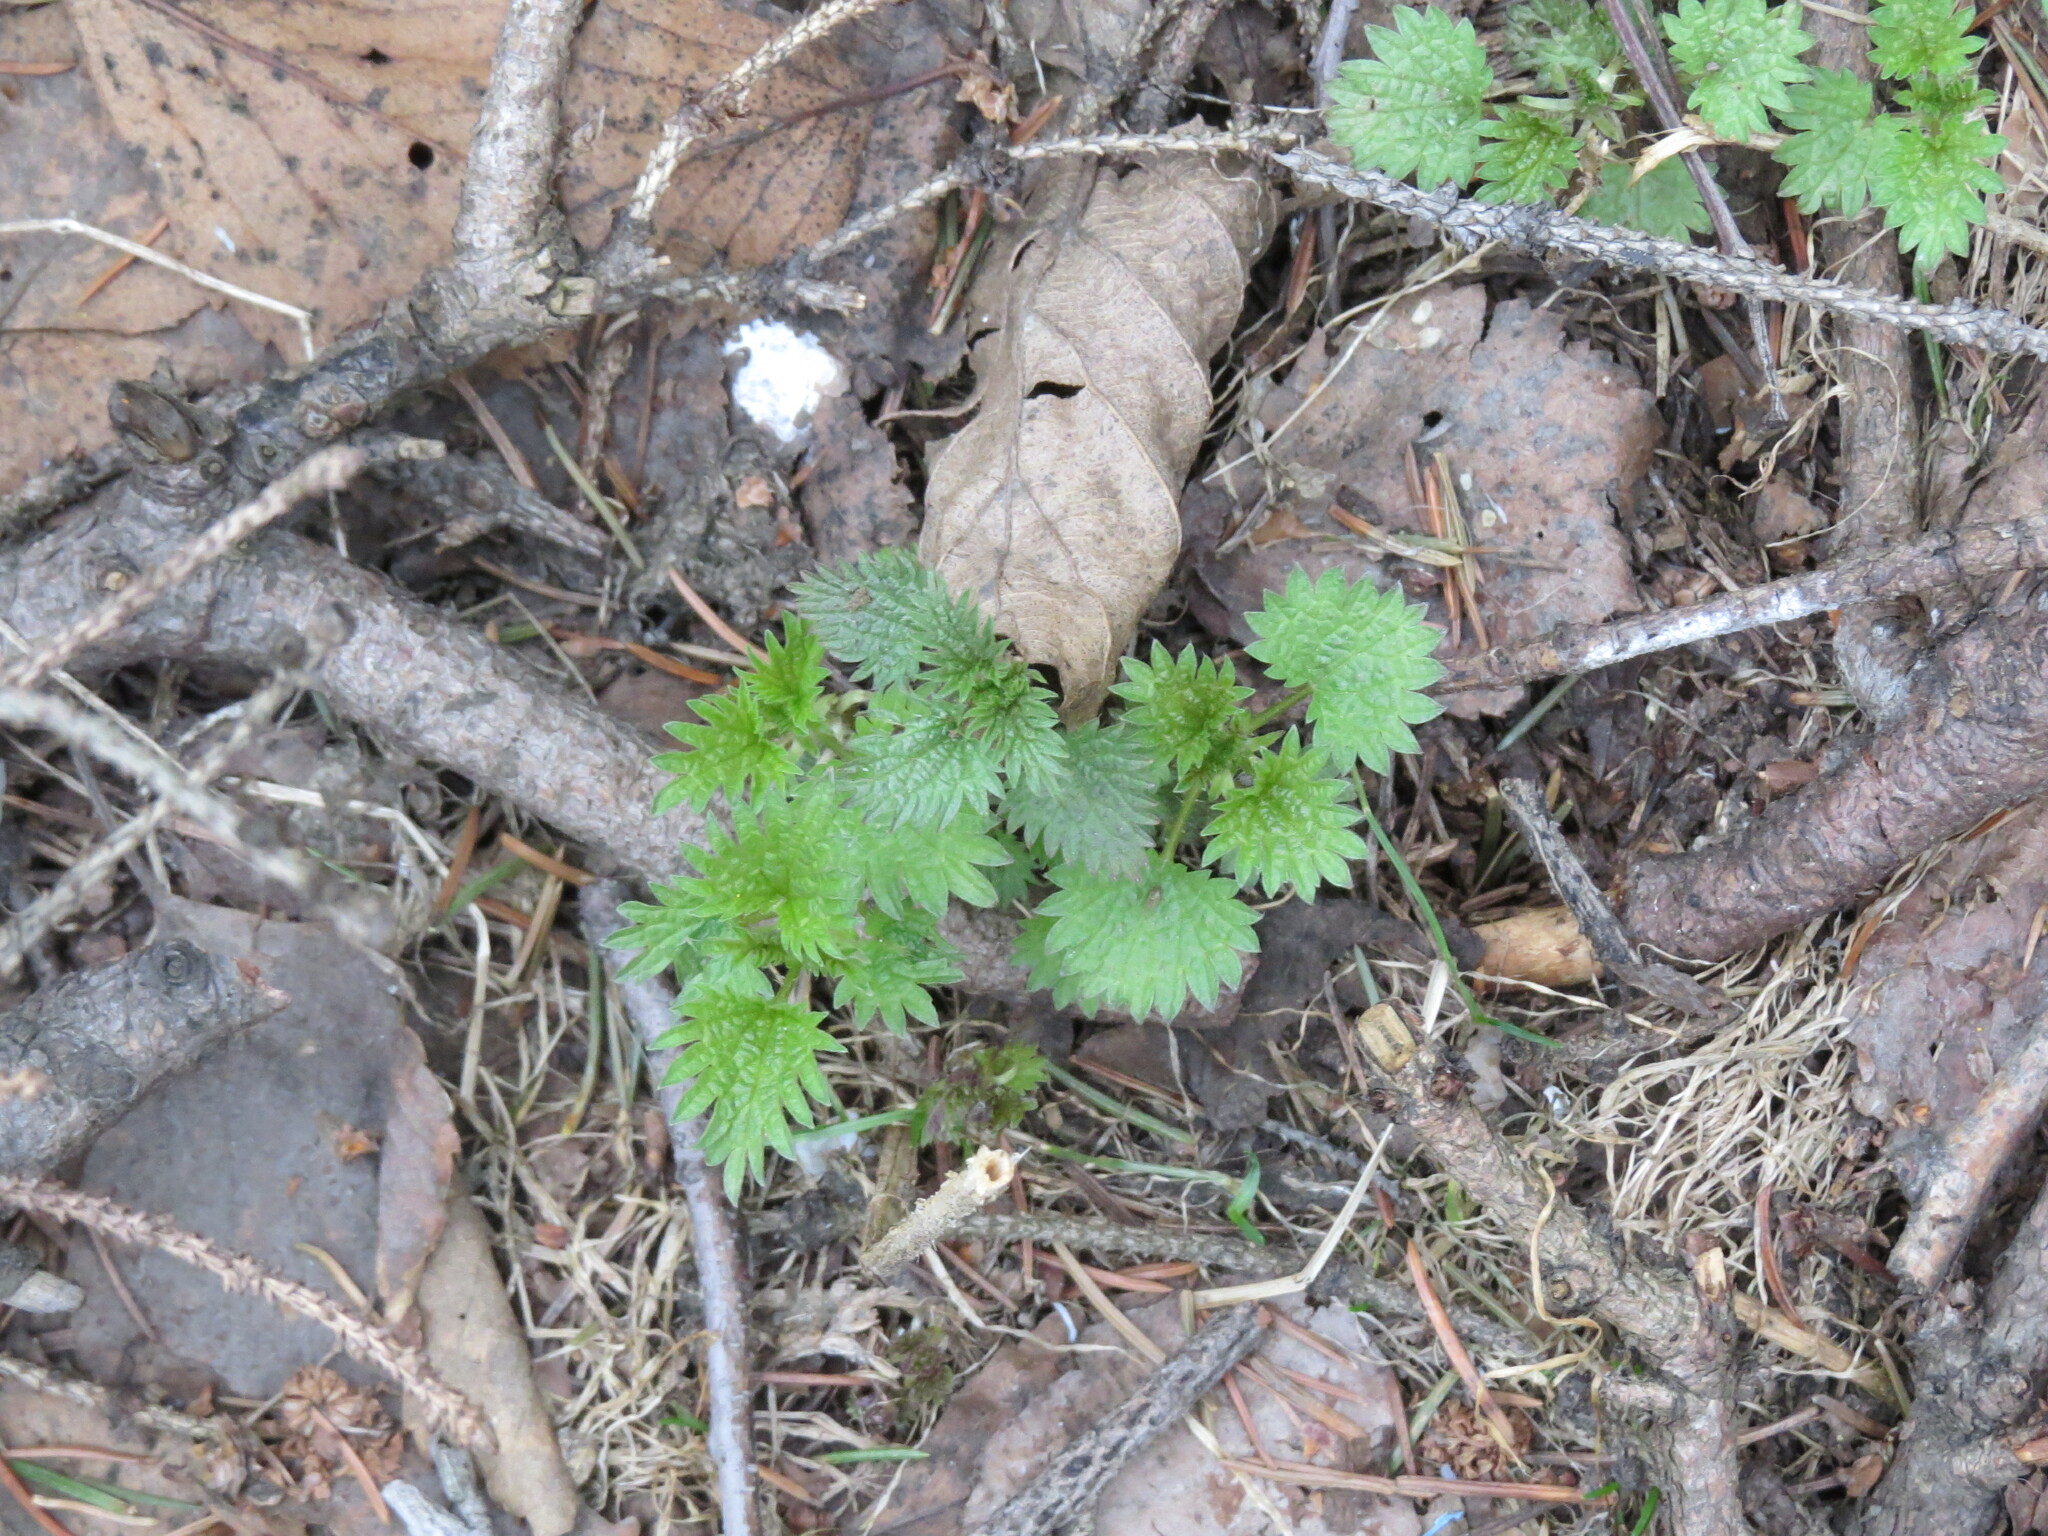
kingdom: Plantae
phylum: Tracheophyta
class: Magnoliopsida
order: Rosales
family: Urticaceae
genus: Urtica
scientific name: Urtica dioica
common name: Common nettle
